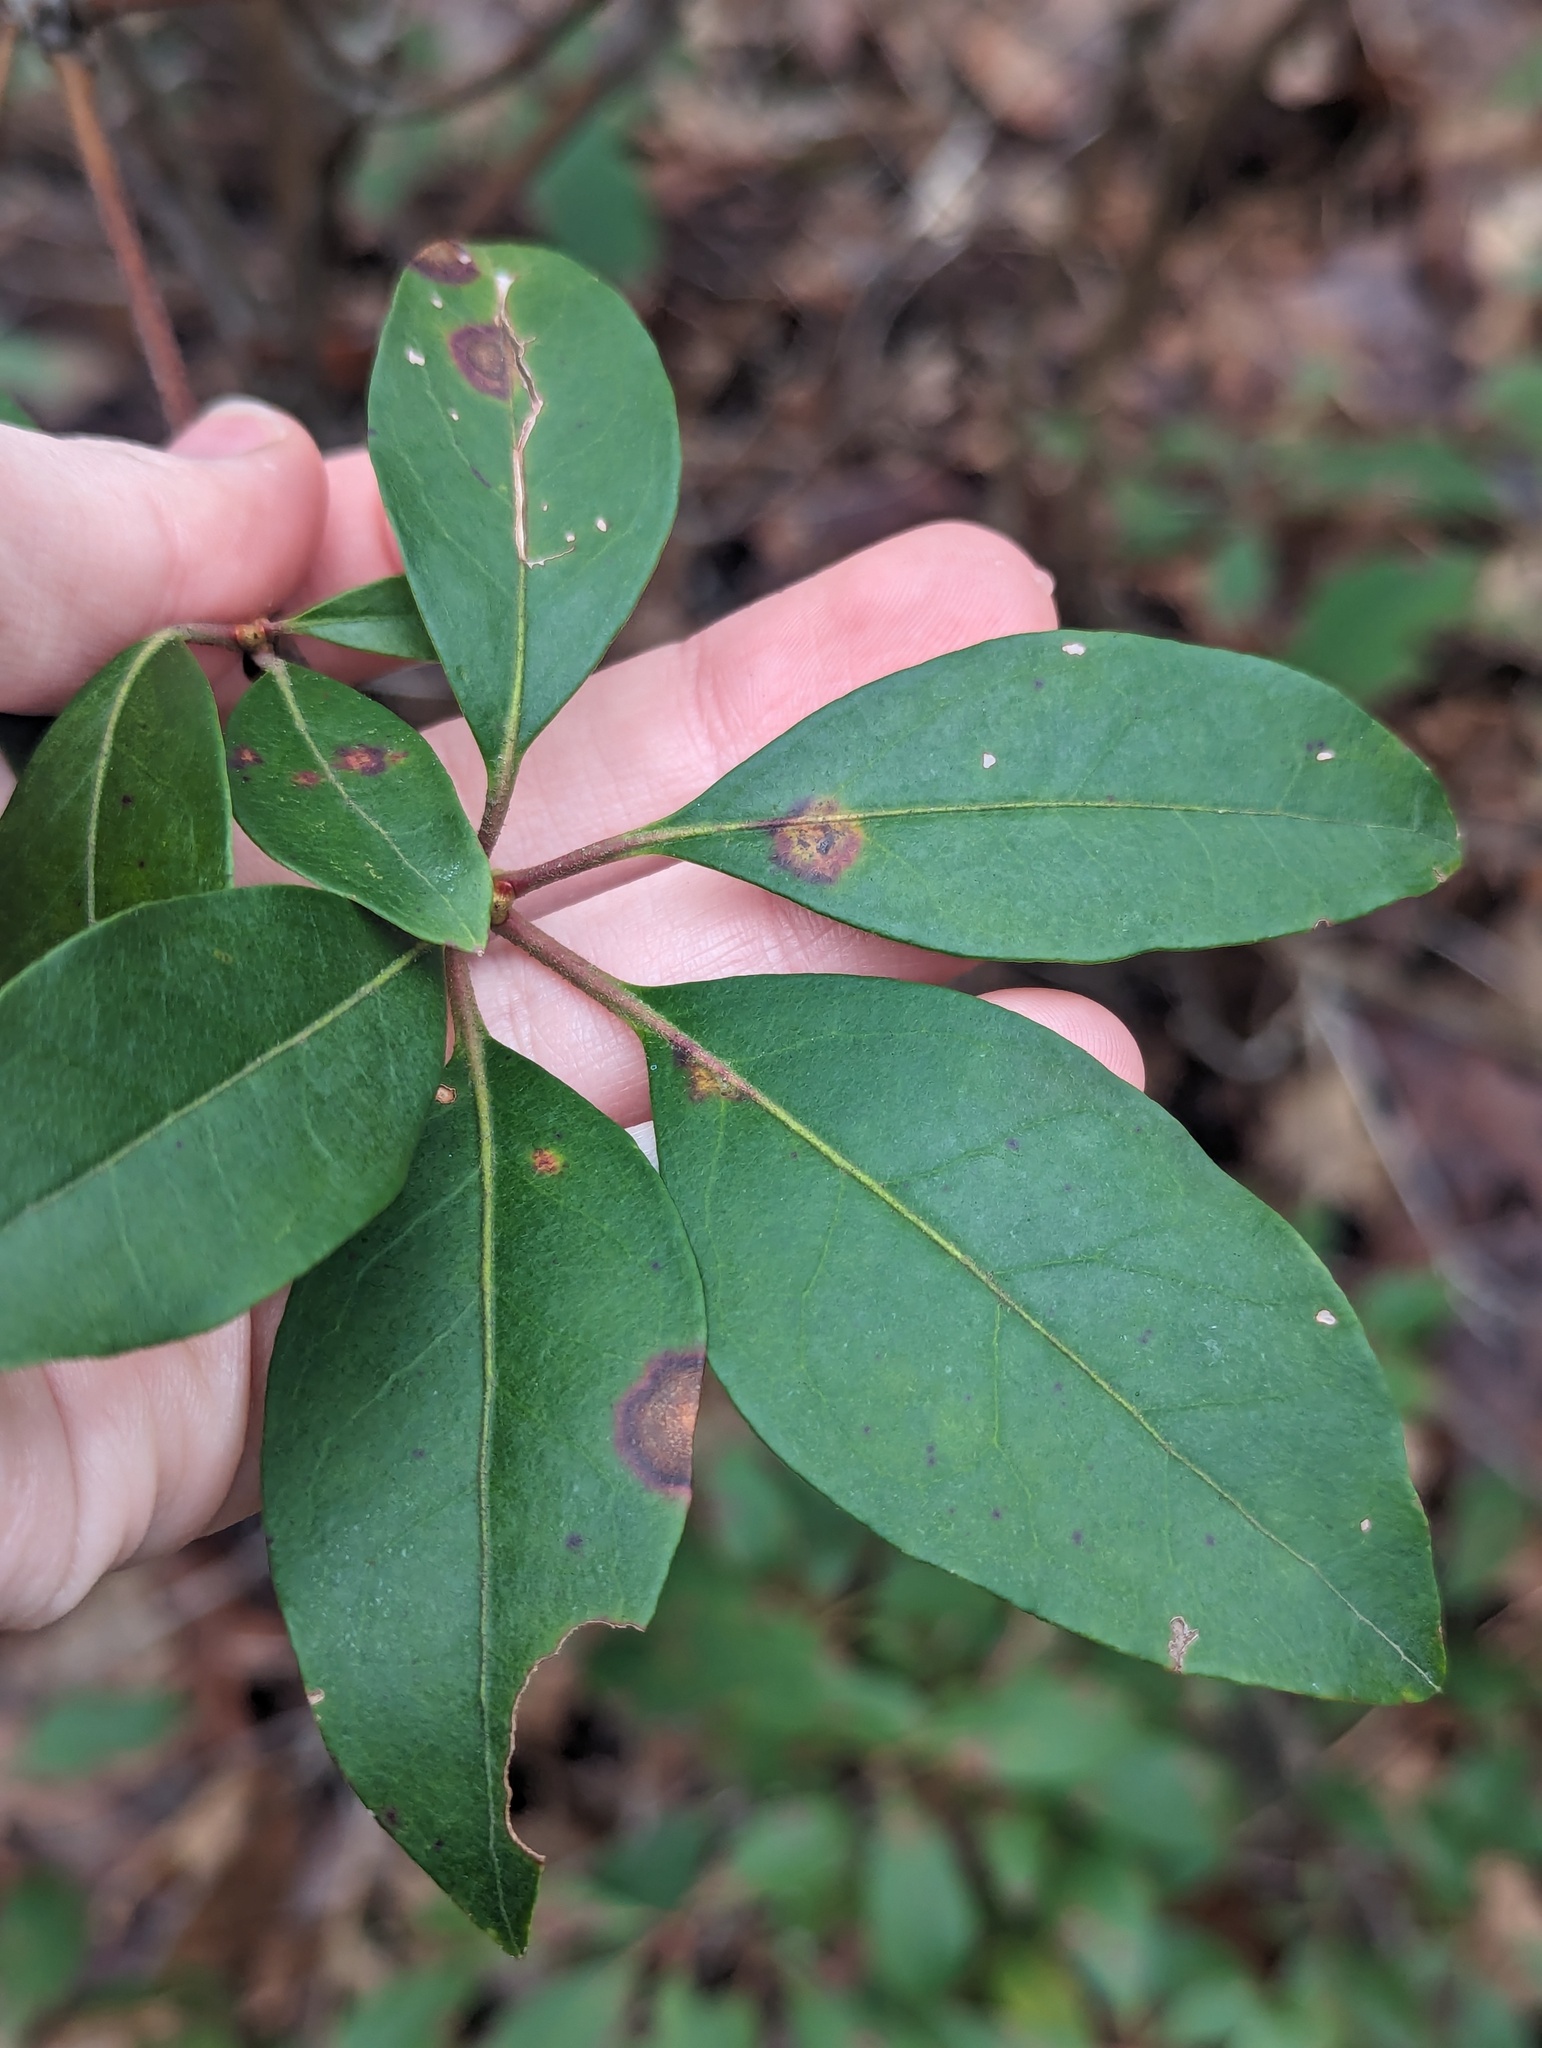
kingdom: Plantae
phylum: Tracheophyta
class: Magnoliopsida
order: Ericales
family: Ericaceae
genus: Kalmia
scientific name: Kalmia latifolia
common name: Mountain-laurel
